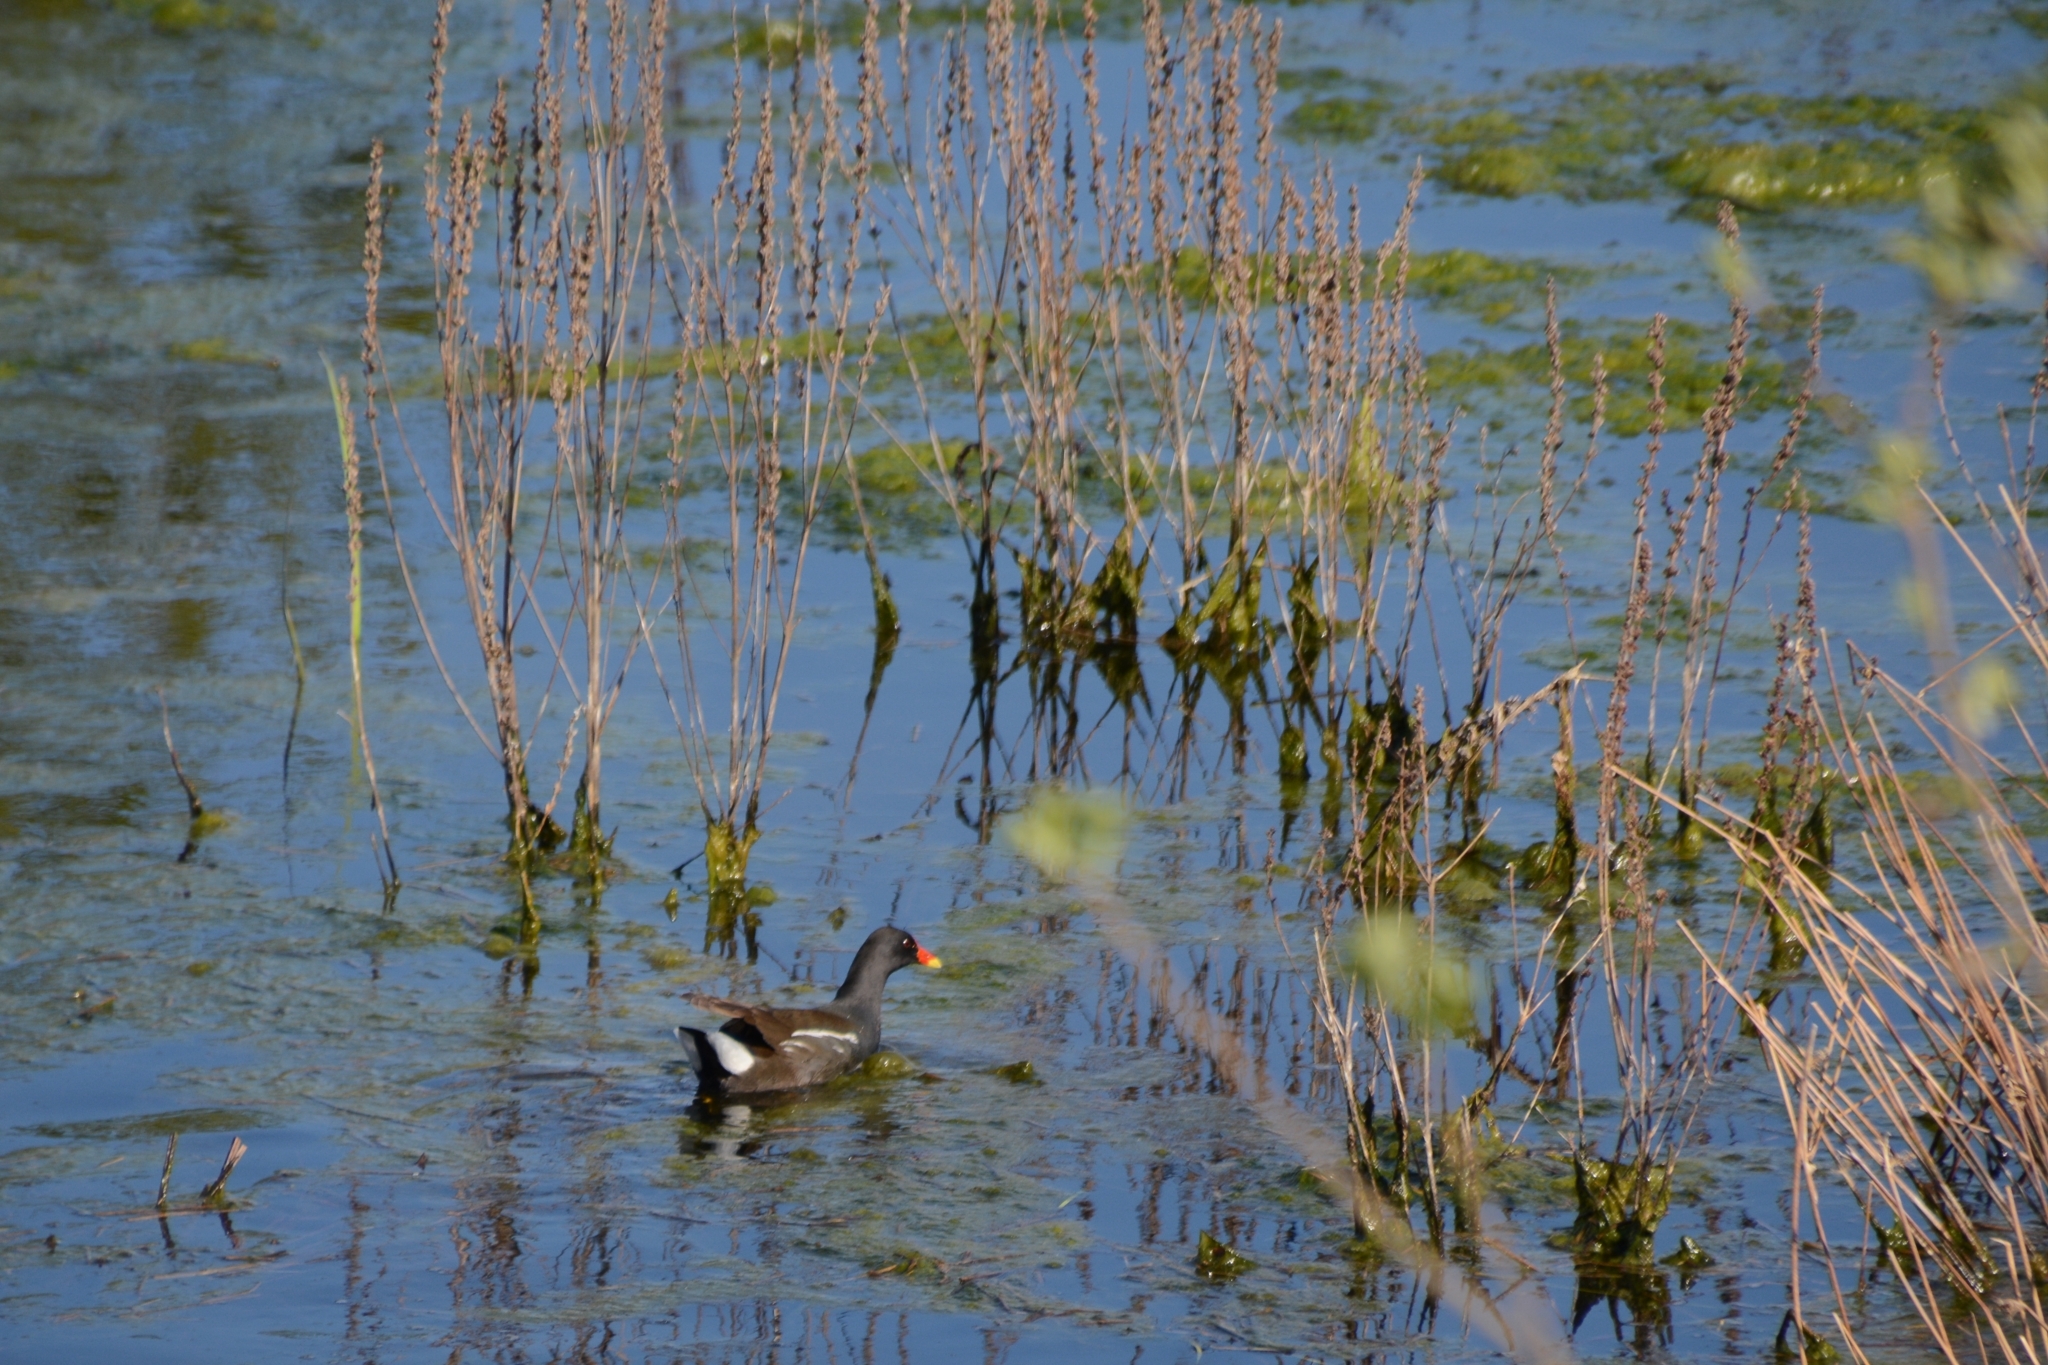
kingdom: Animalia
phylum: Chordata
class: Aves
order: Gruiformes
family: Rallidae
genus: Gallinula
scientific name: Gallinula chloropus
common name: Common moorhen
